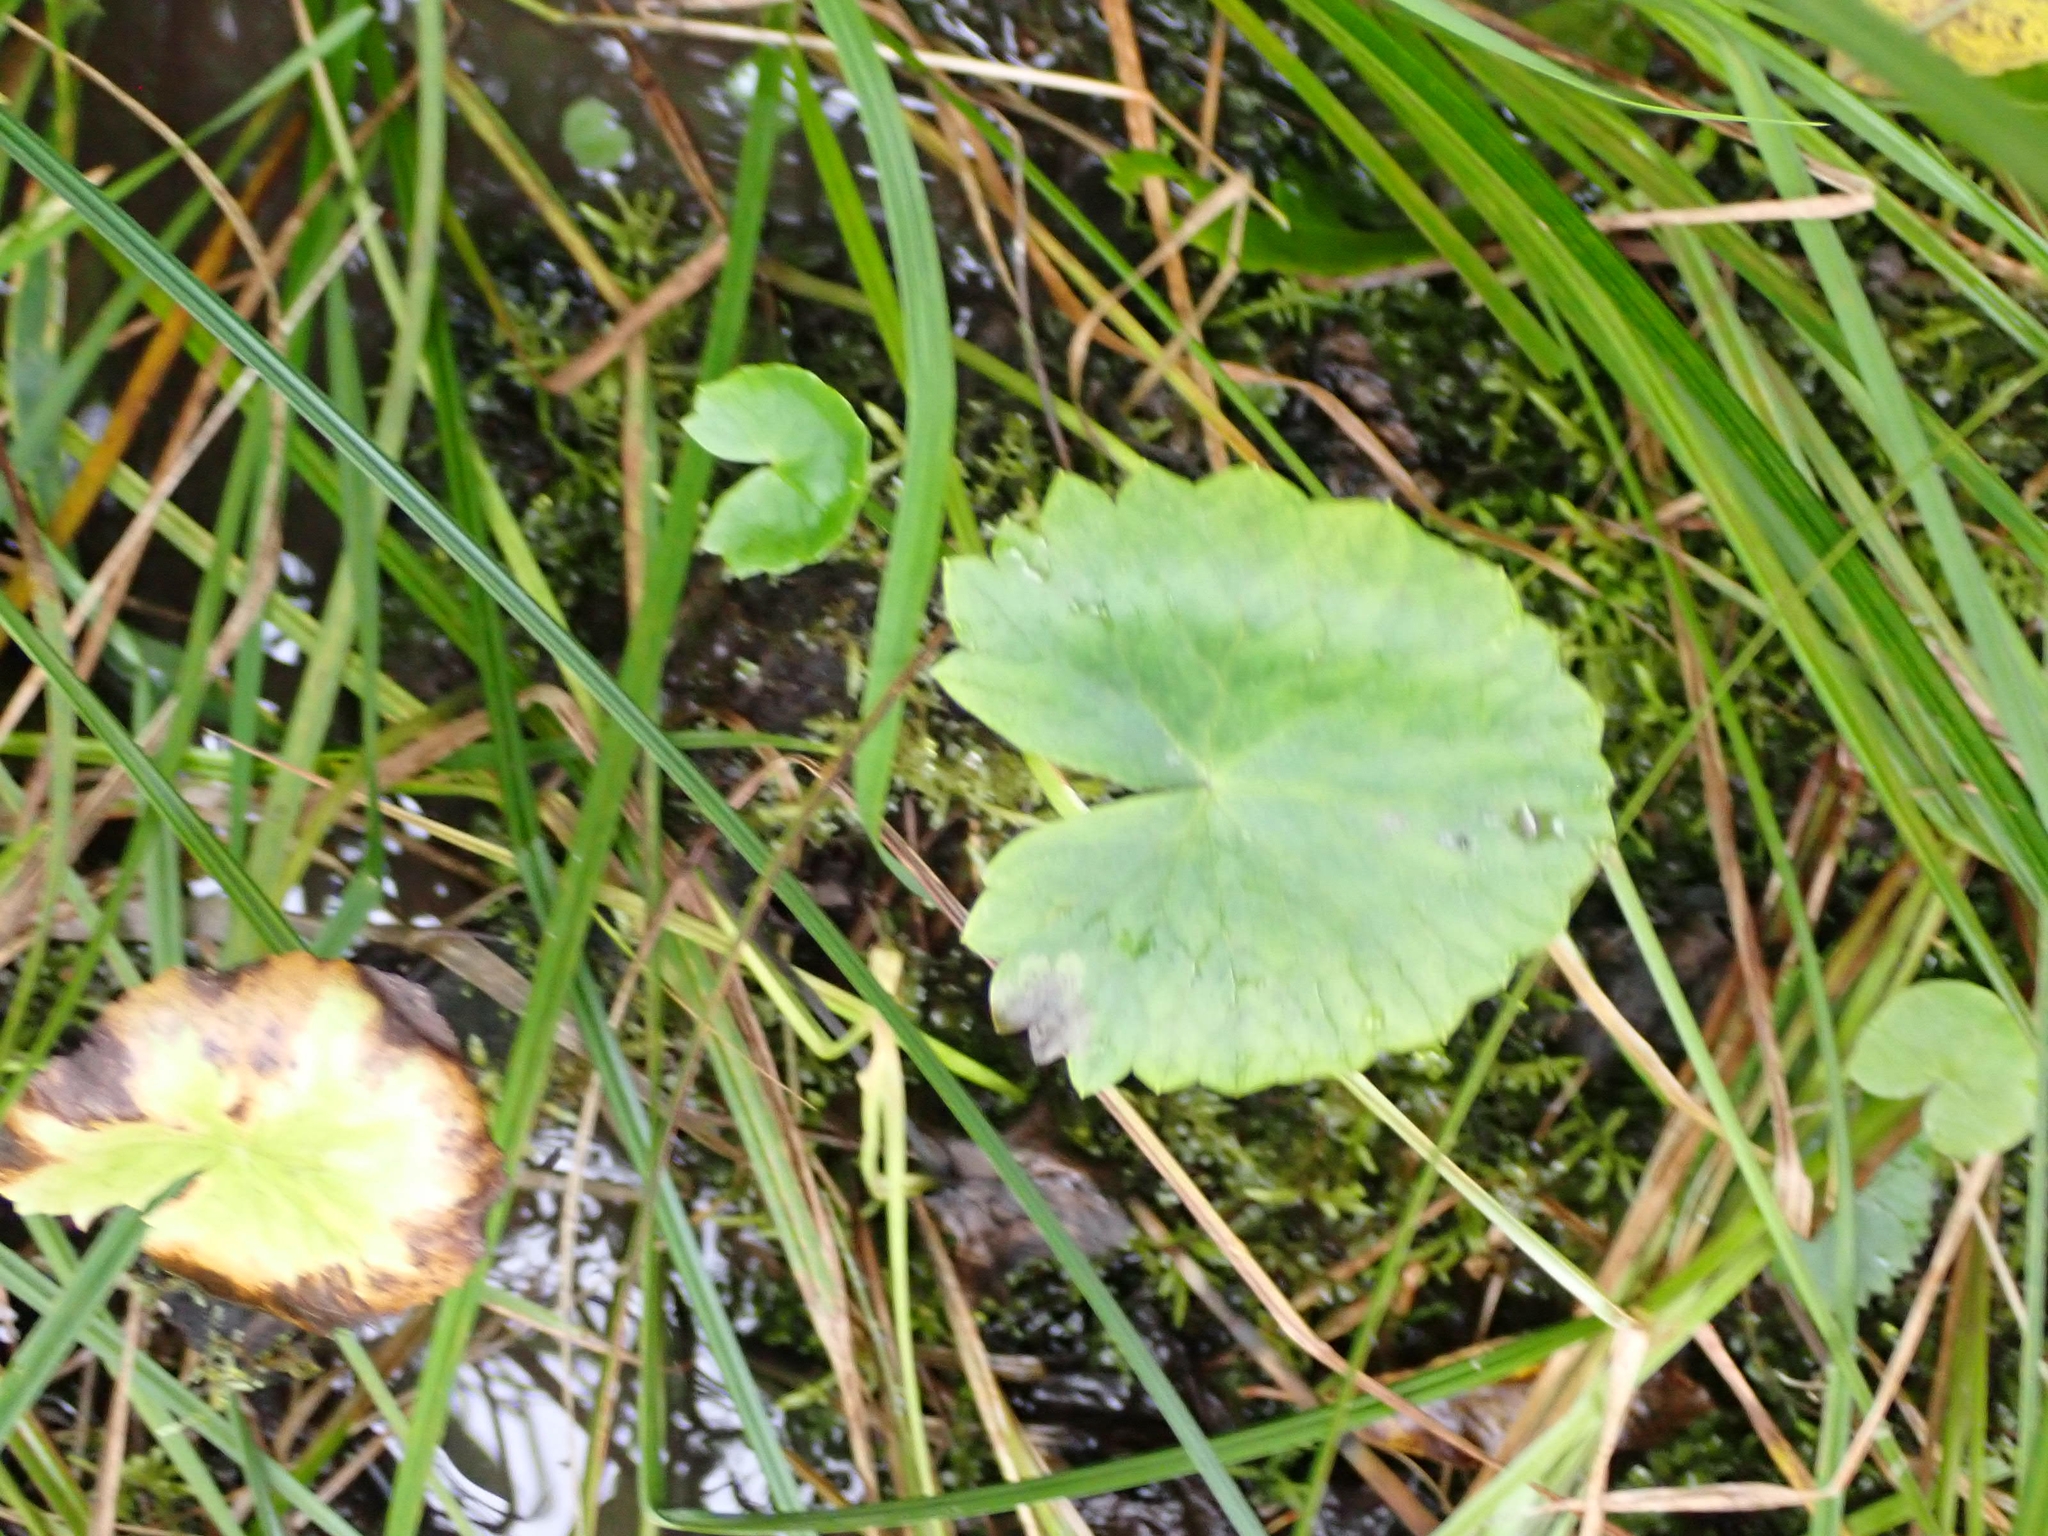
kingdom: Plantae
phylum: Tracheophyta
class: Magnoliopsida
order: Ranunculales
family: Ranunculaceae
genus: Caltha
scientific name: Caltha palustris
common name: Marsh marigold
